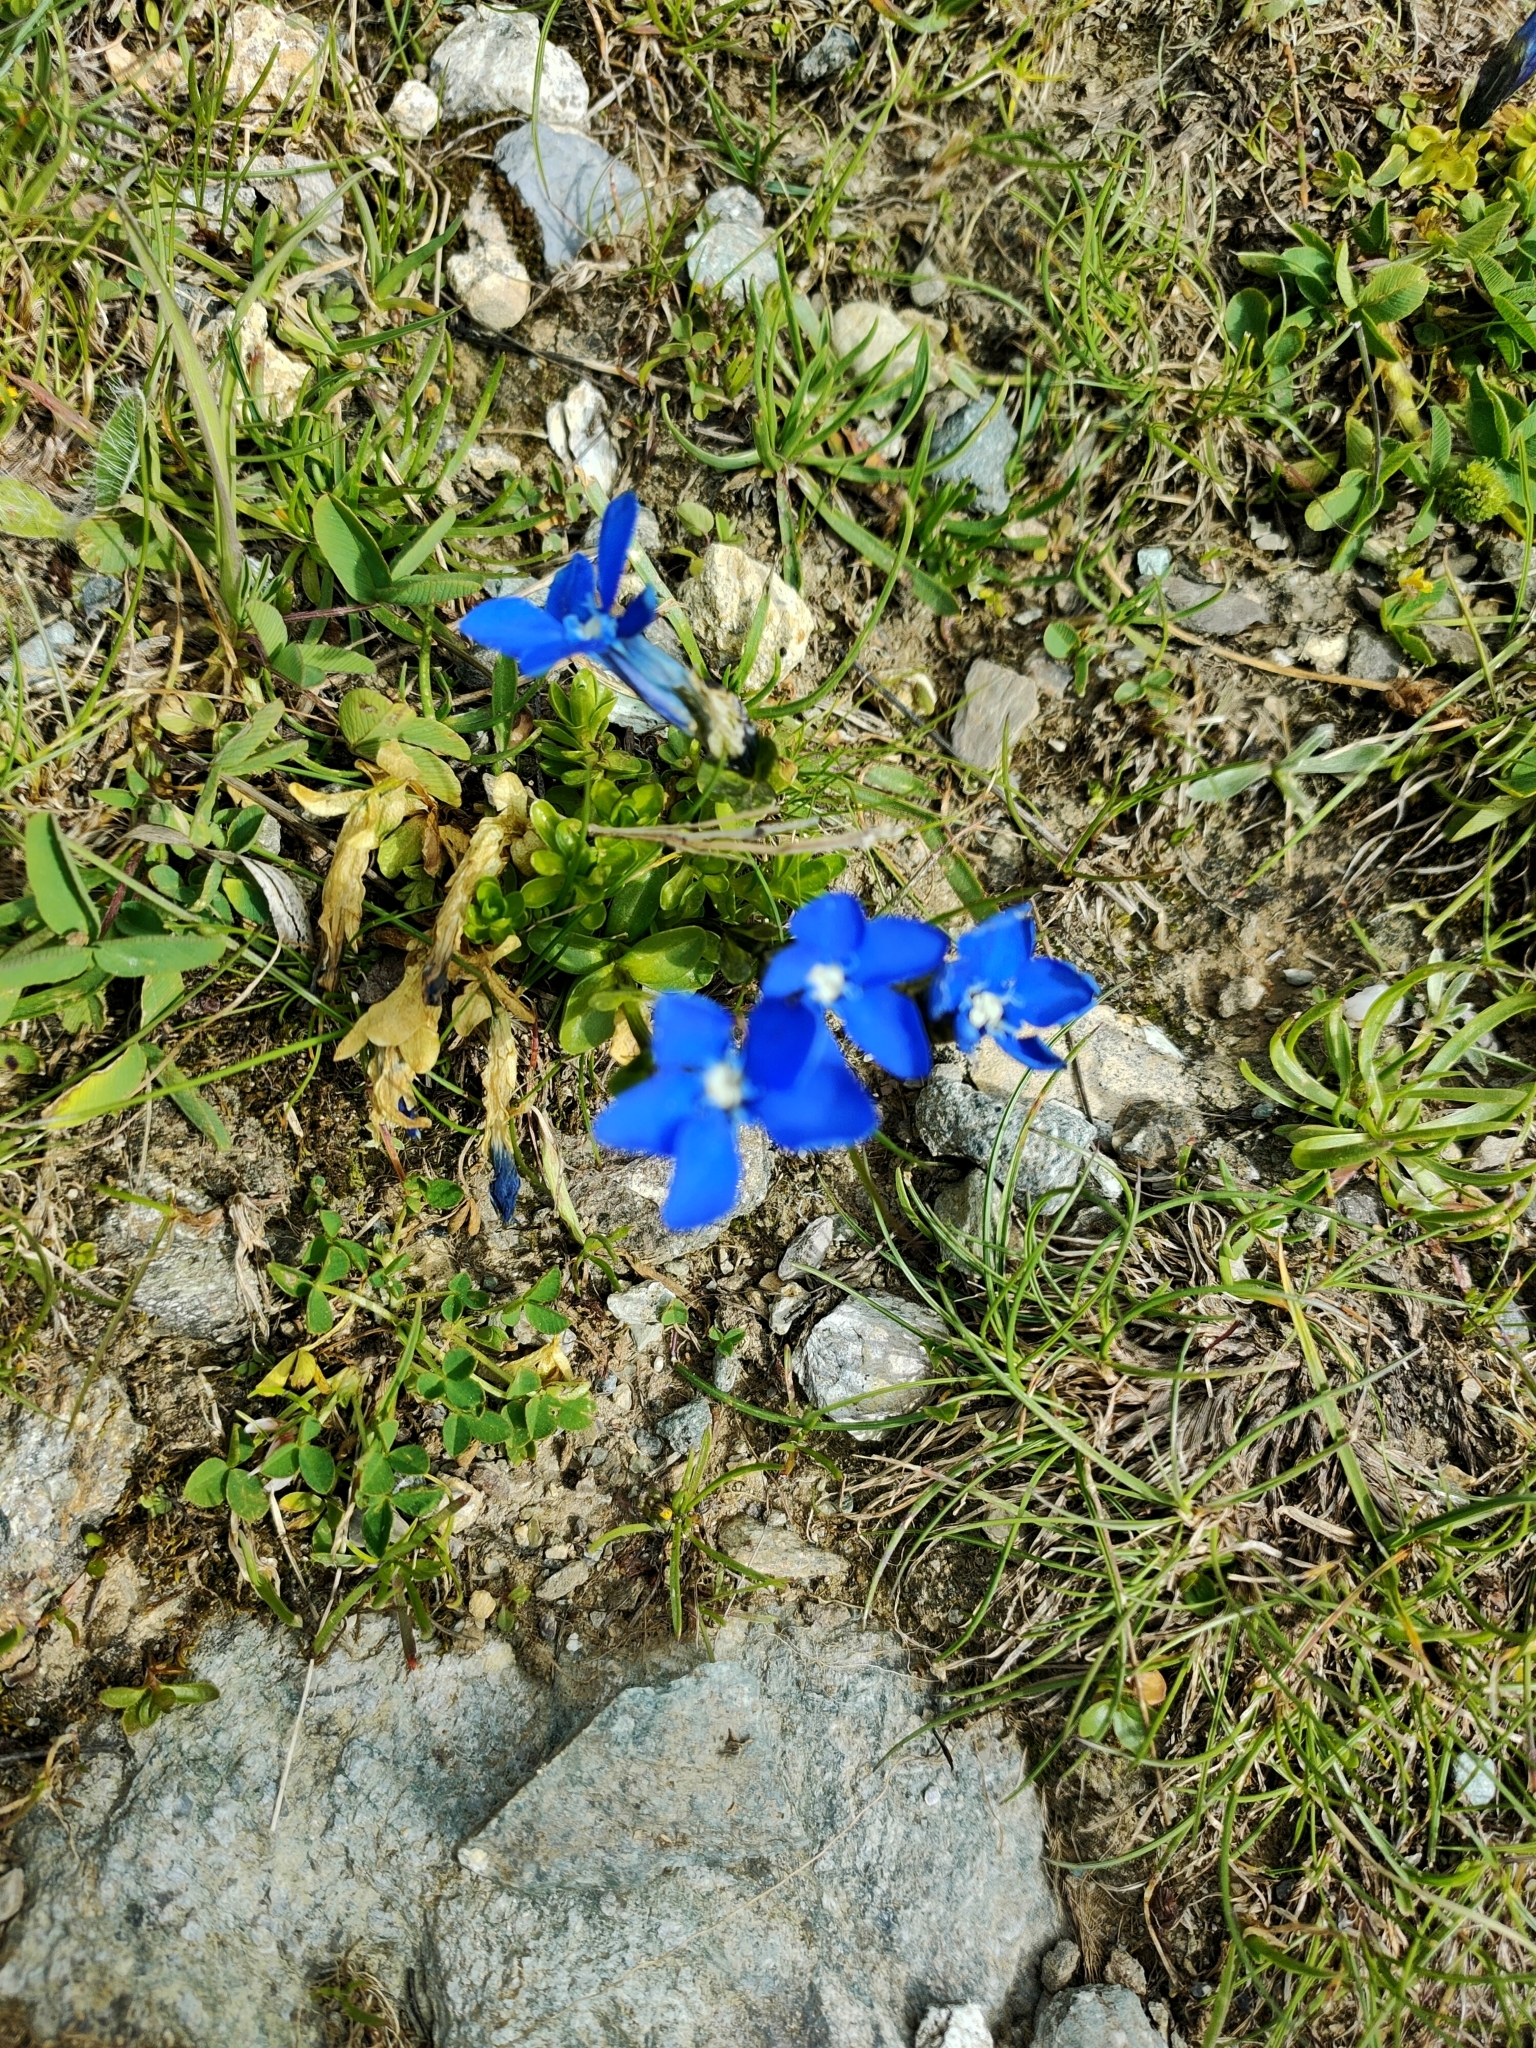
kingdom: Plantae
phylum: Tracheophyta
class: Magnoliopsida
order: Gentianales
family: Gentianaceae
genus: Gentiana
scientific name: Gentiana bavarica
